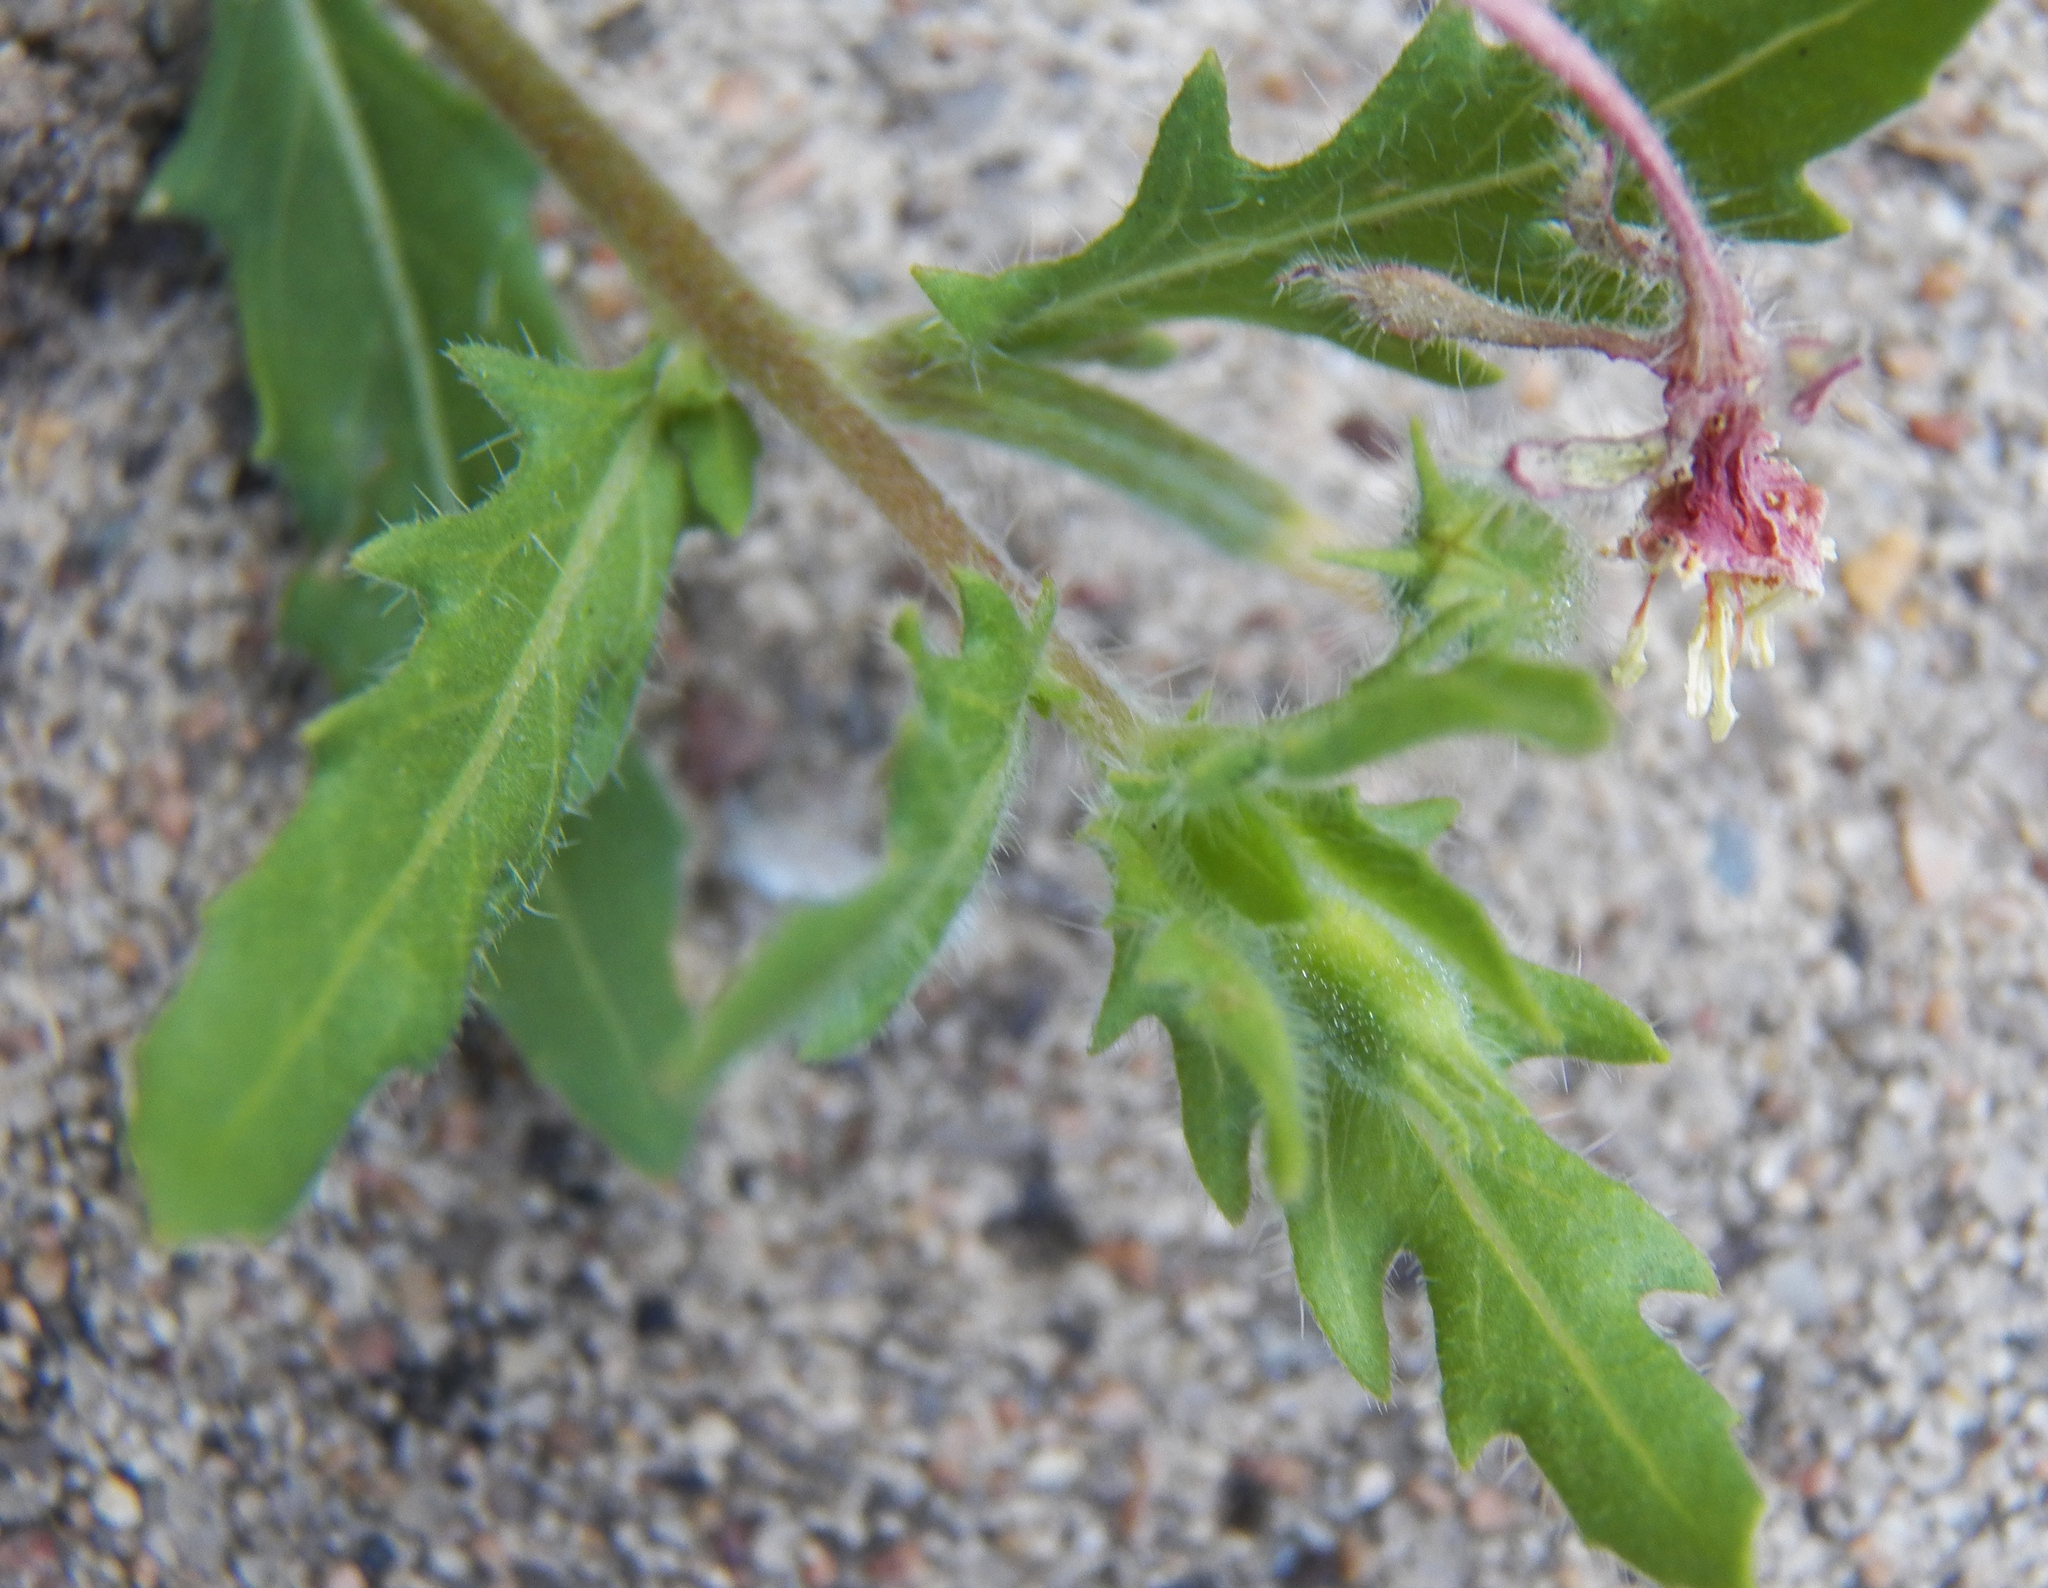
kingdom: Plantae
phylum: Tracheophyta
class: Magnoliopsida
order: Myrtales
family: Onagraceae
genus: Oenothera
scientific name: Oenothera laciniata
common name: Cut-leaved evening-primrose
